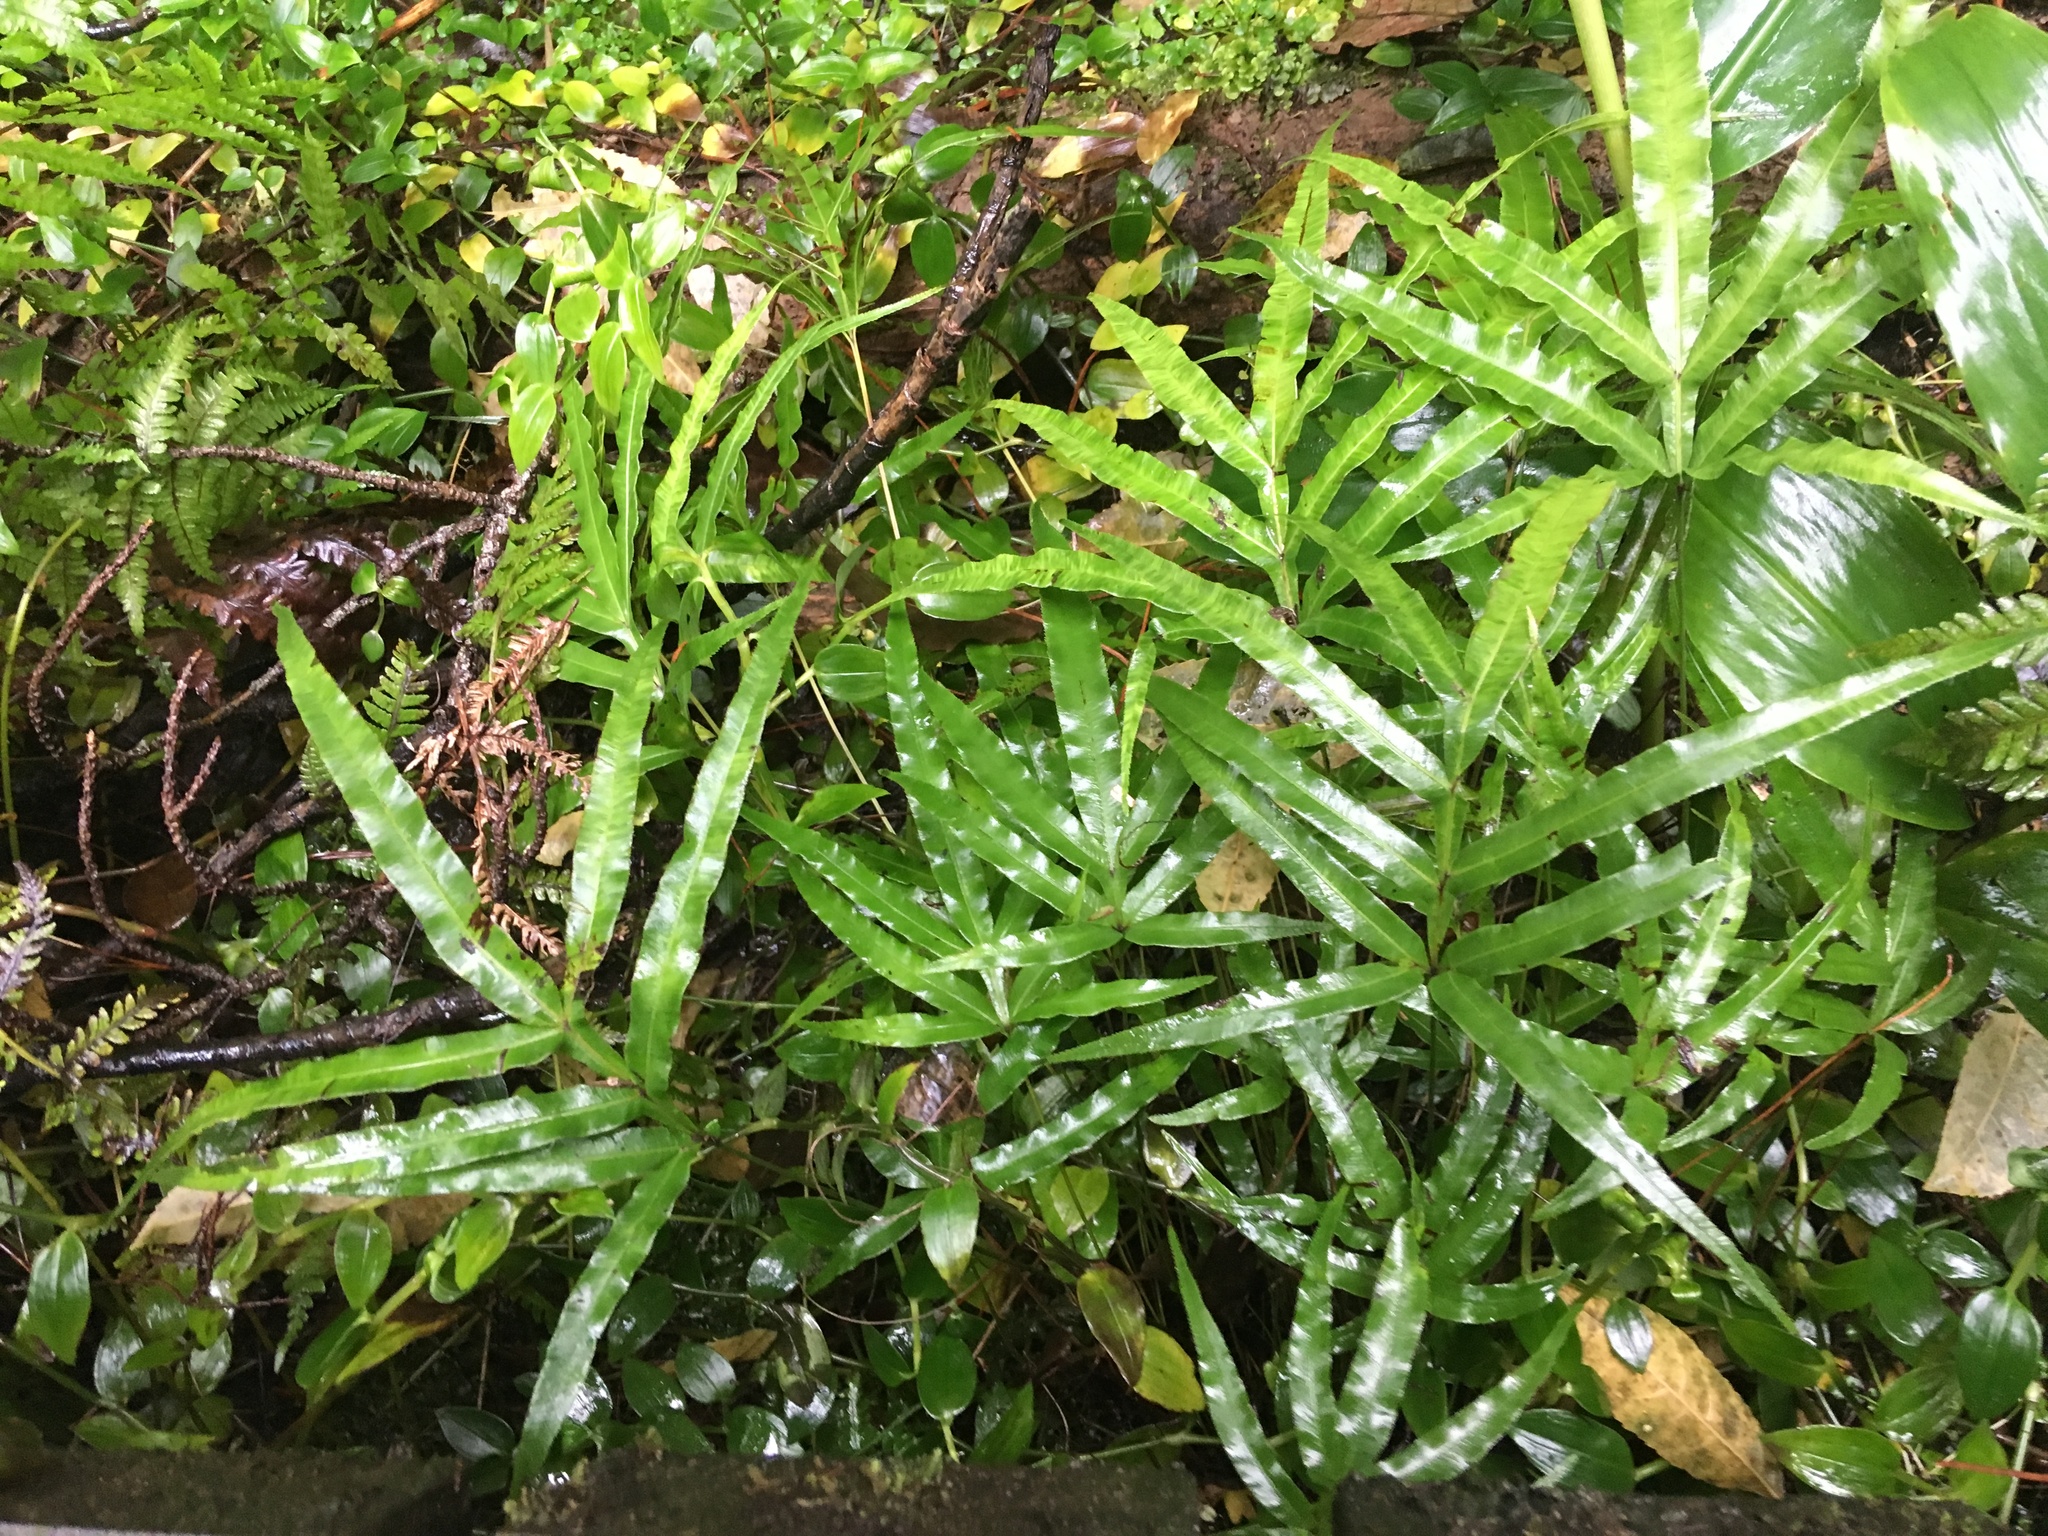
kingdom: Plantae
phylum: Tracheophyta
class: Liliopsida
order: Zingiberales
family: Zingiberaceae
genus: Hedychium
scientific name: Hedychium gardnerianum
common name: Himalayan ginger
